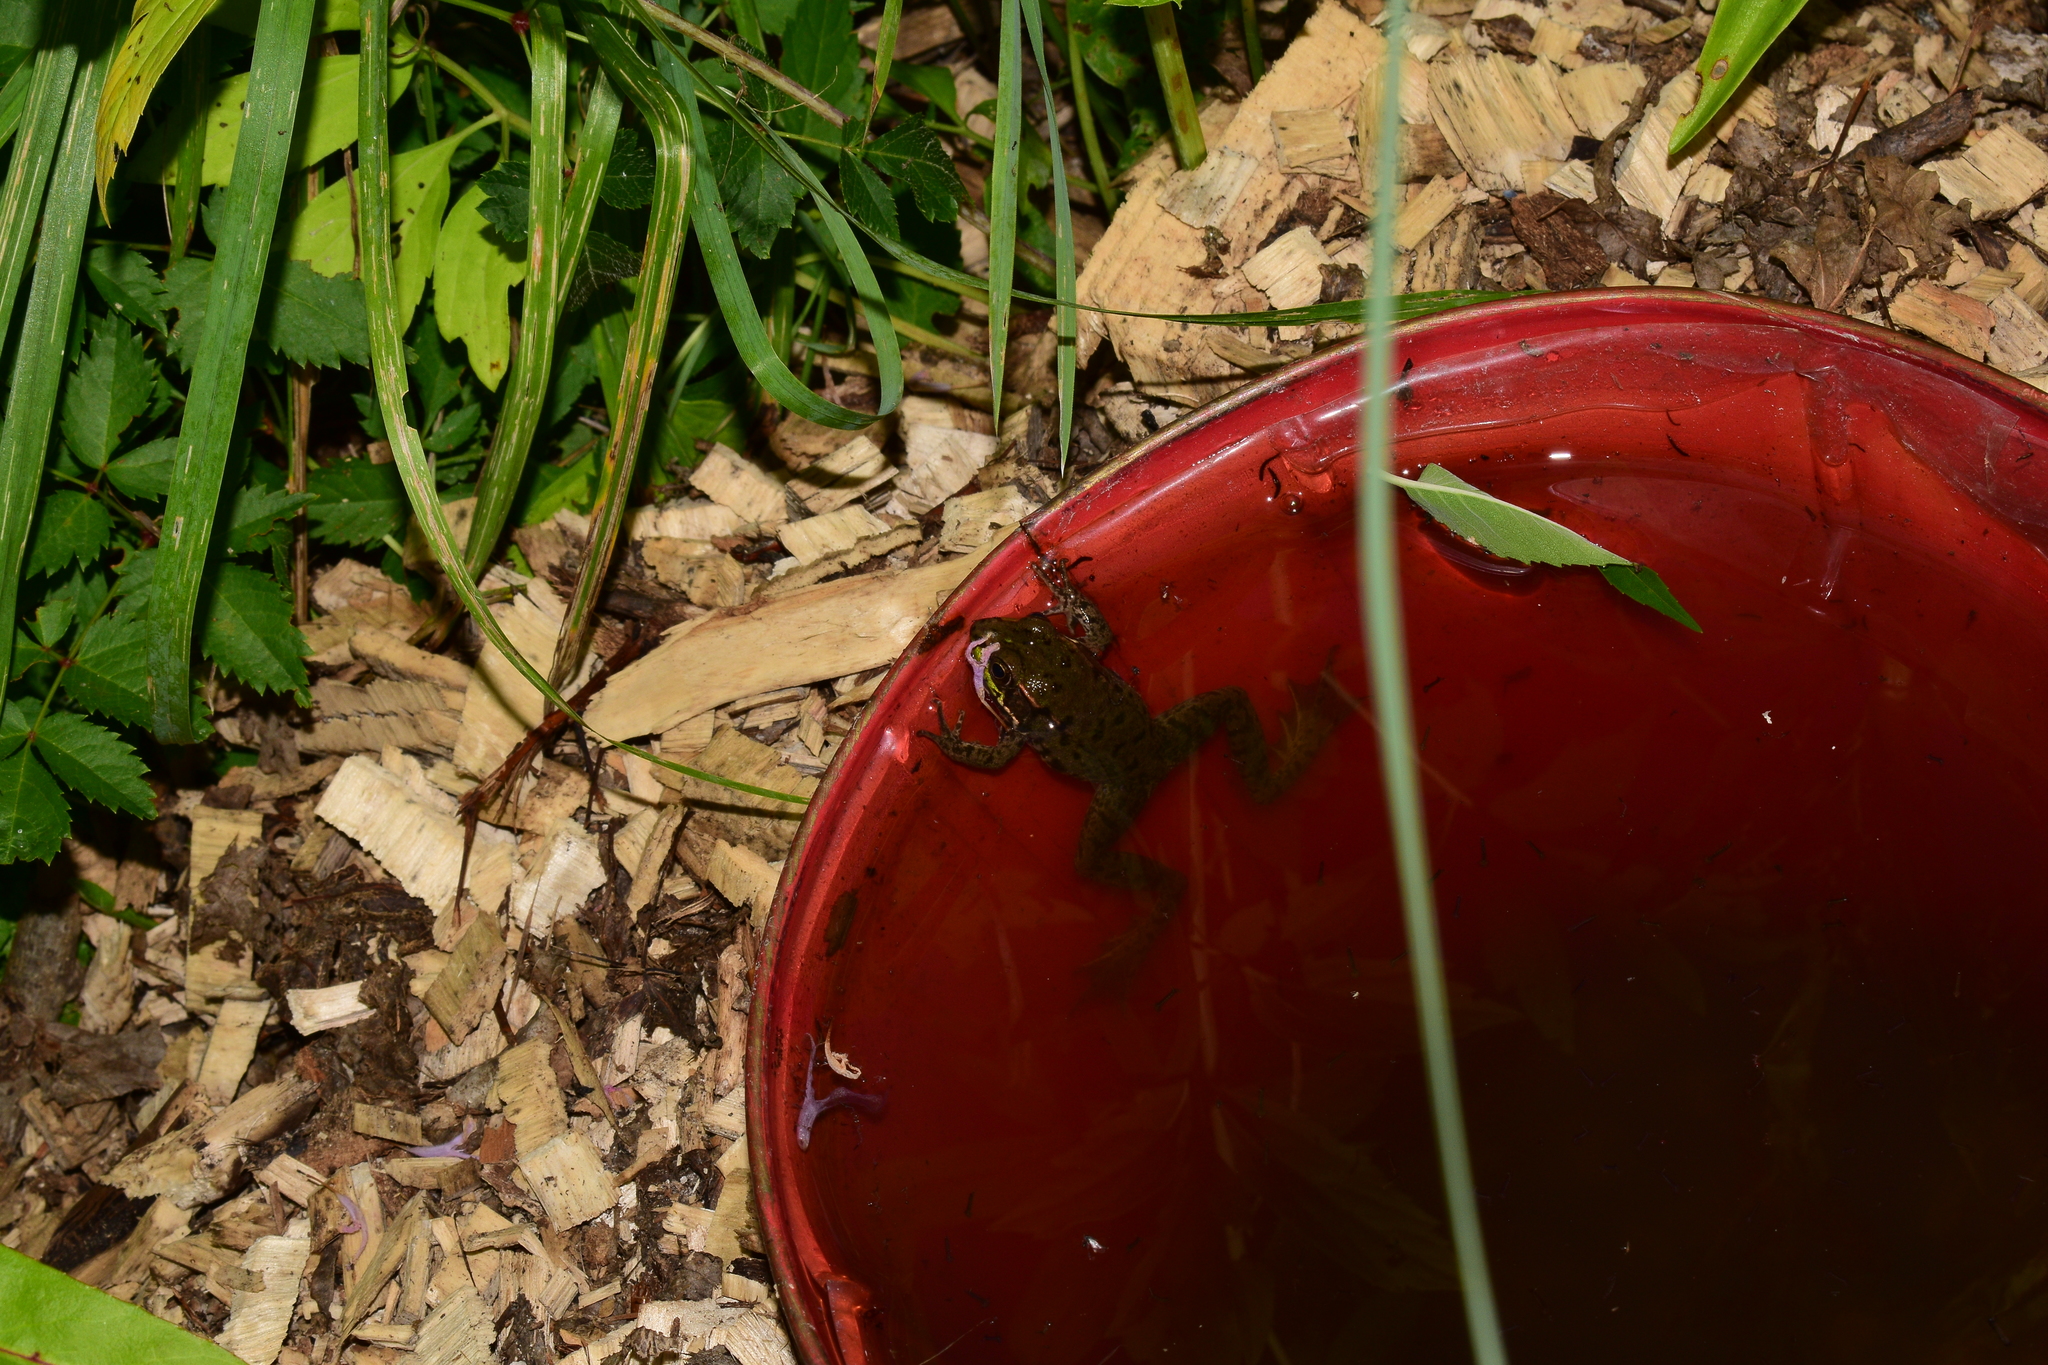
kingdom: Animalia
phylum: Chordata
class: Amphibia
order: Anura
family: Ranidae
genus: Lithobates
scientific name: Lithobates clamitans
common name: Green frog
